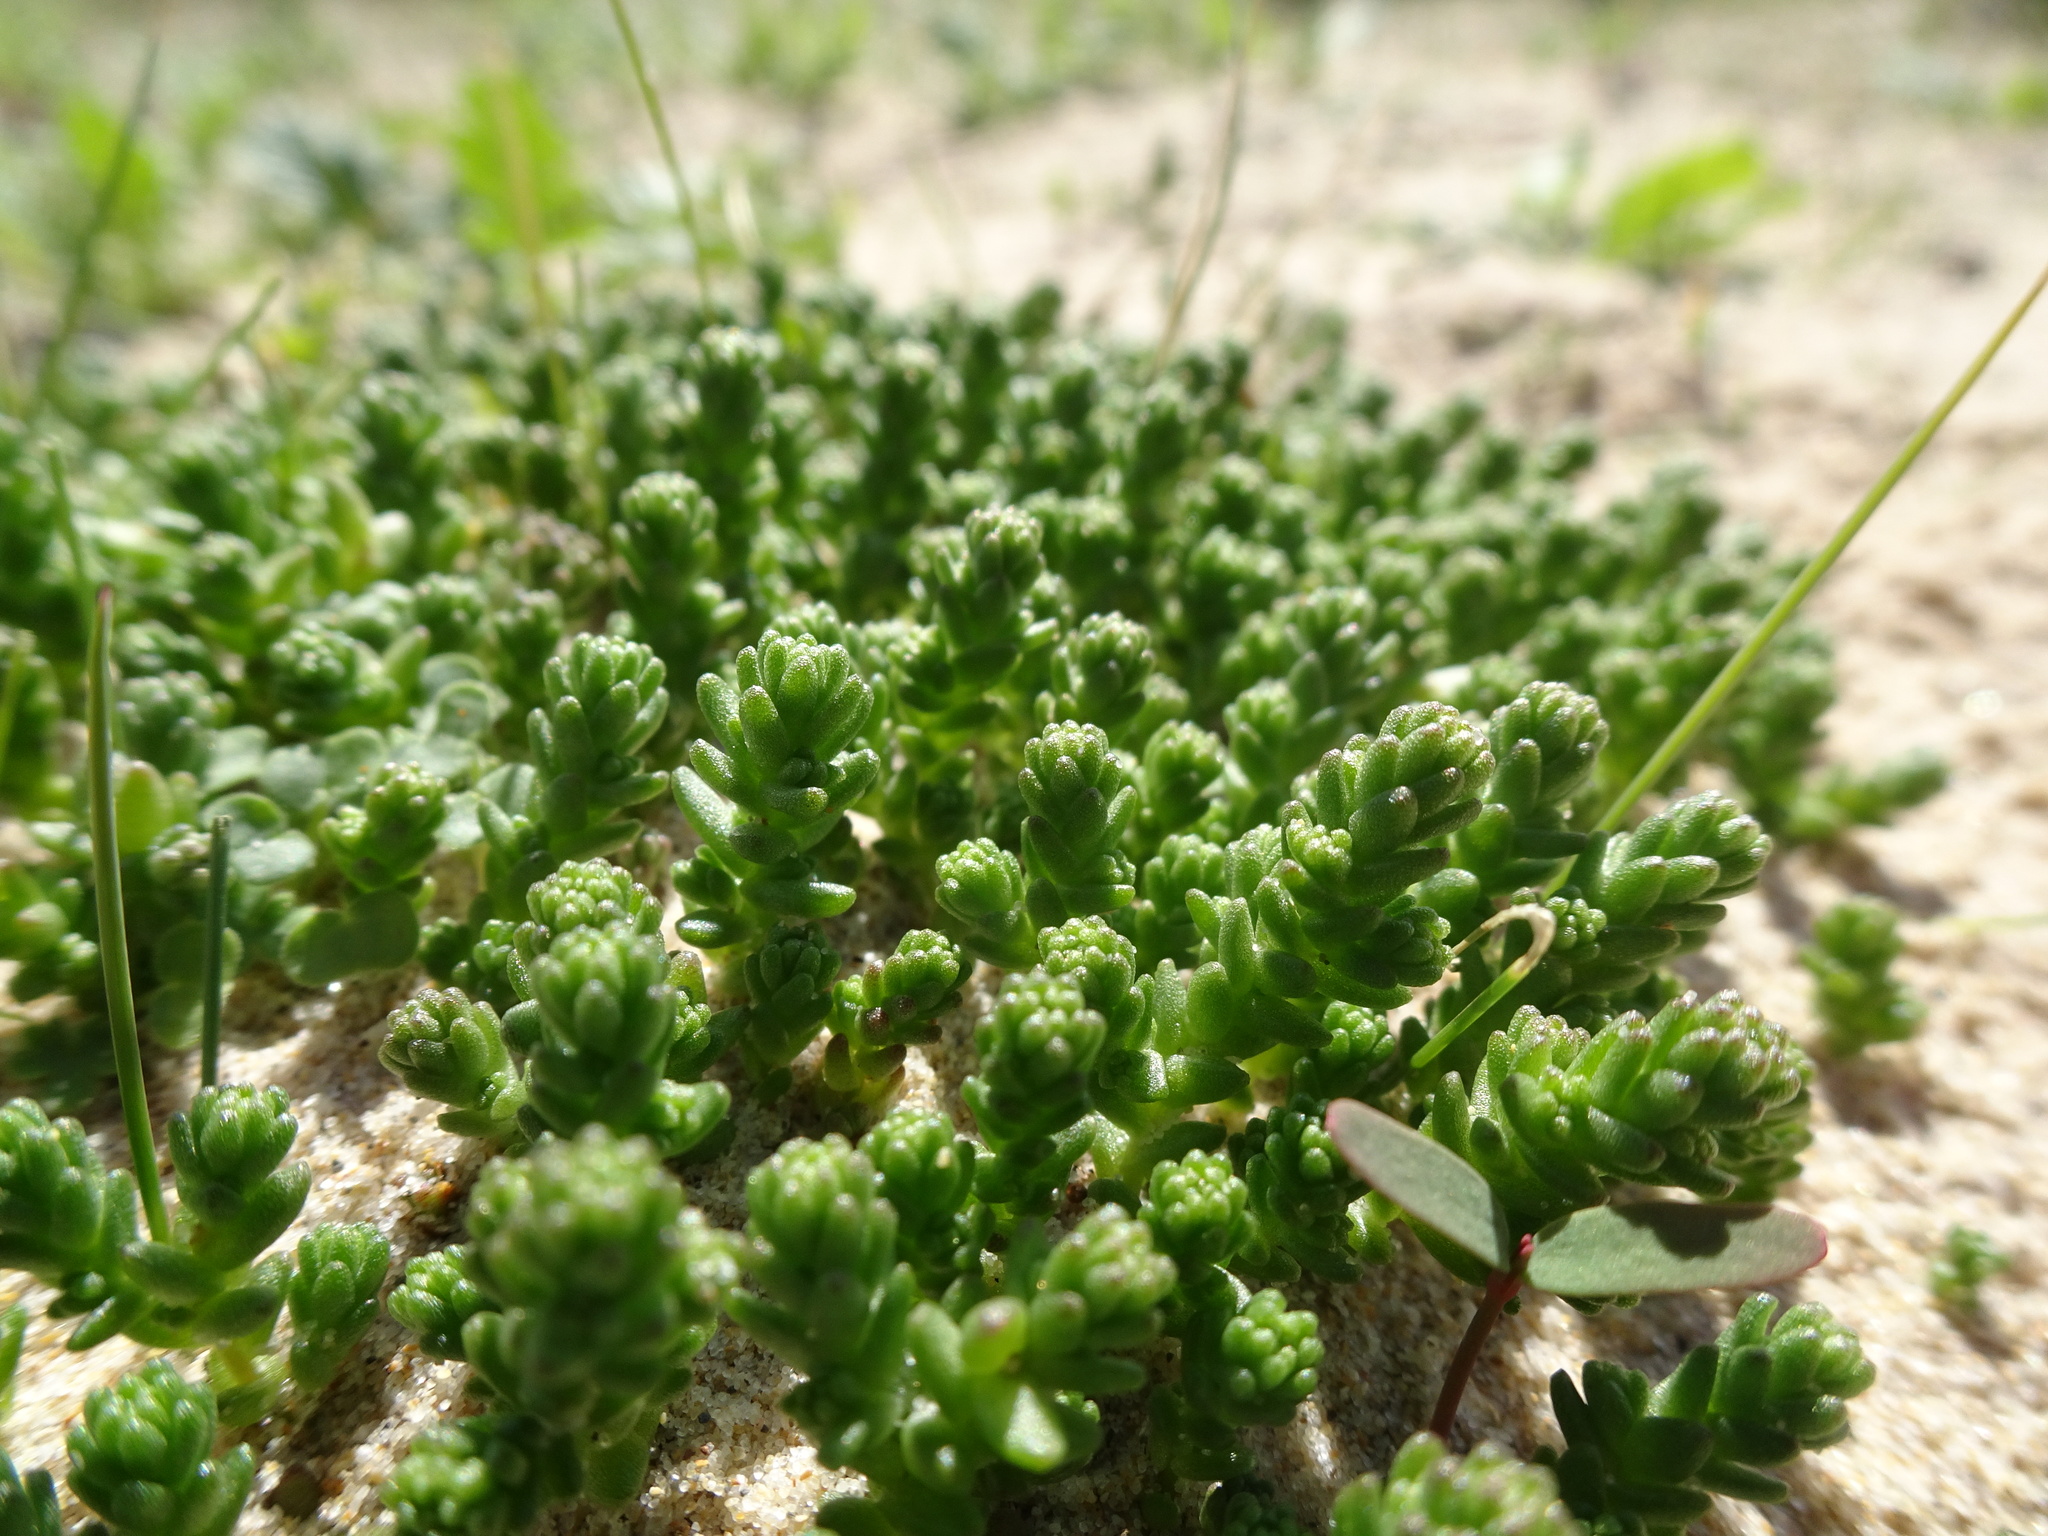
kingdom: Plantae
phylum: Tracheophyta
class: Magnoliopsida
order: Saxifragales
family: Crassulaceae
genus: Sedum
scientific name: Sedum acre
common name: Biting stonecrop
